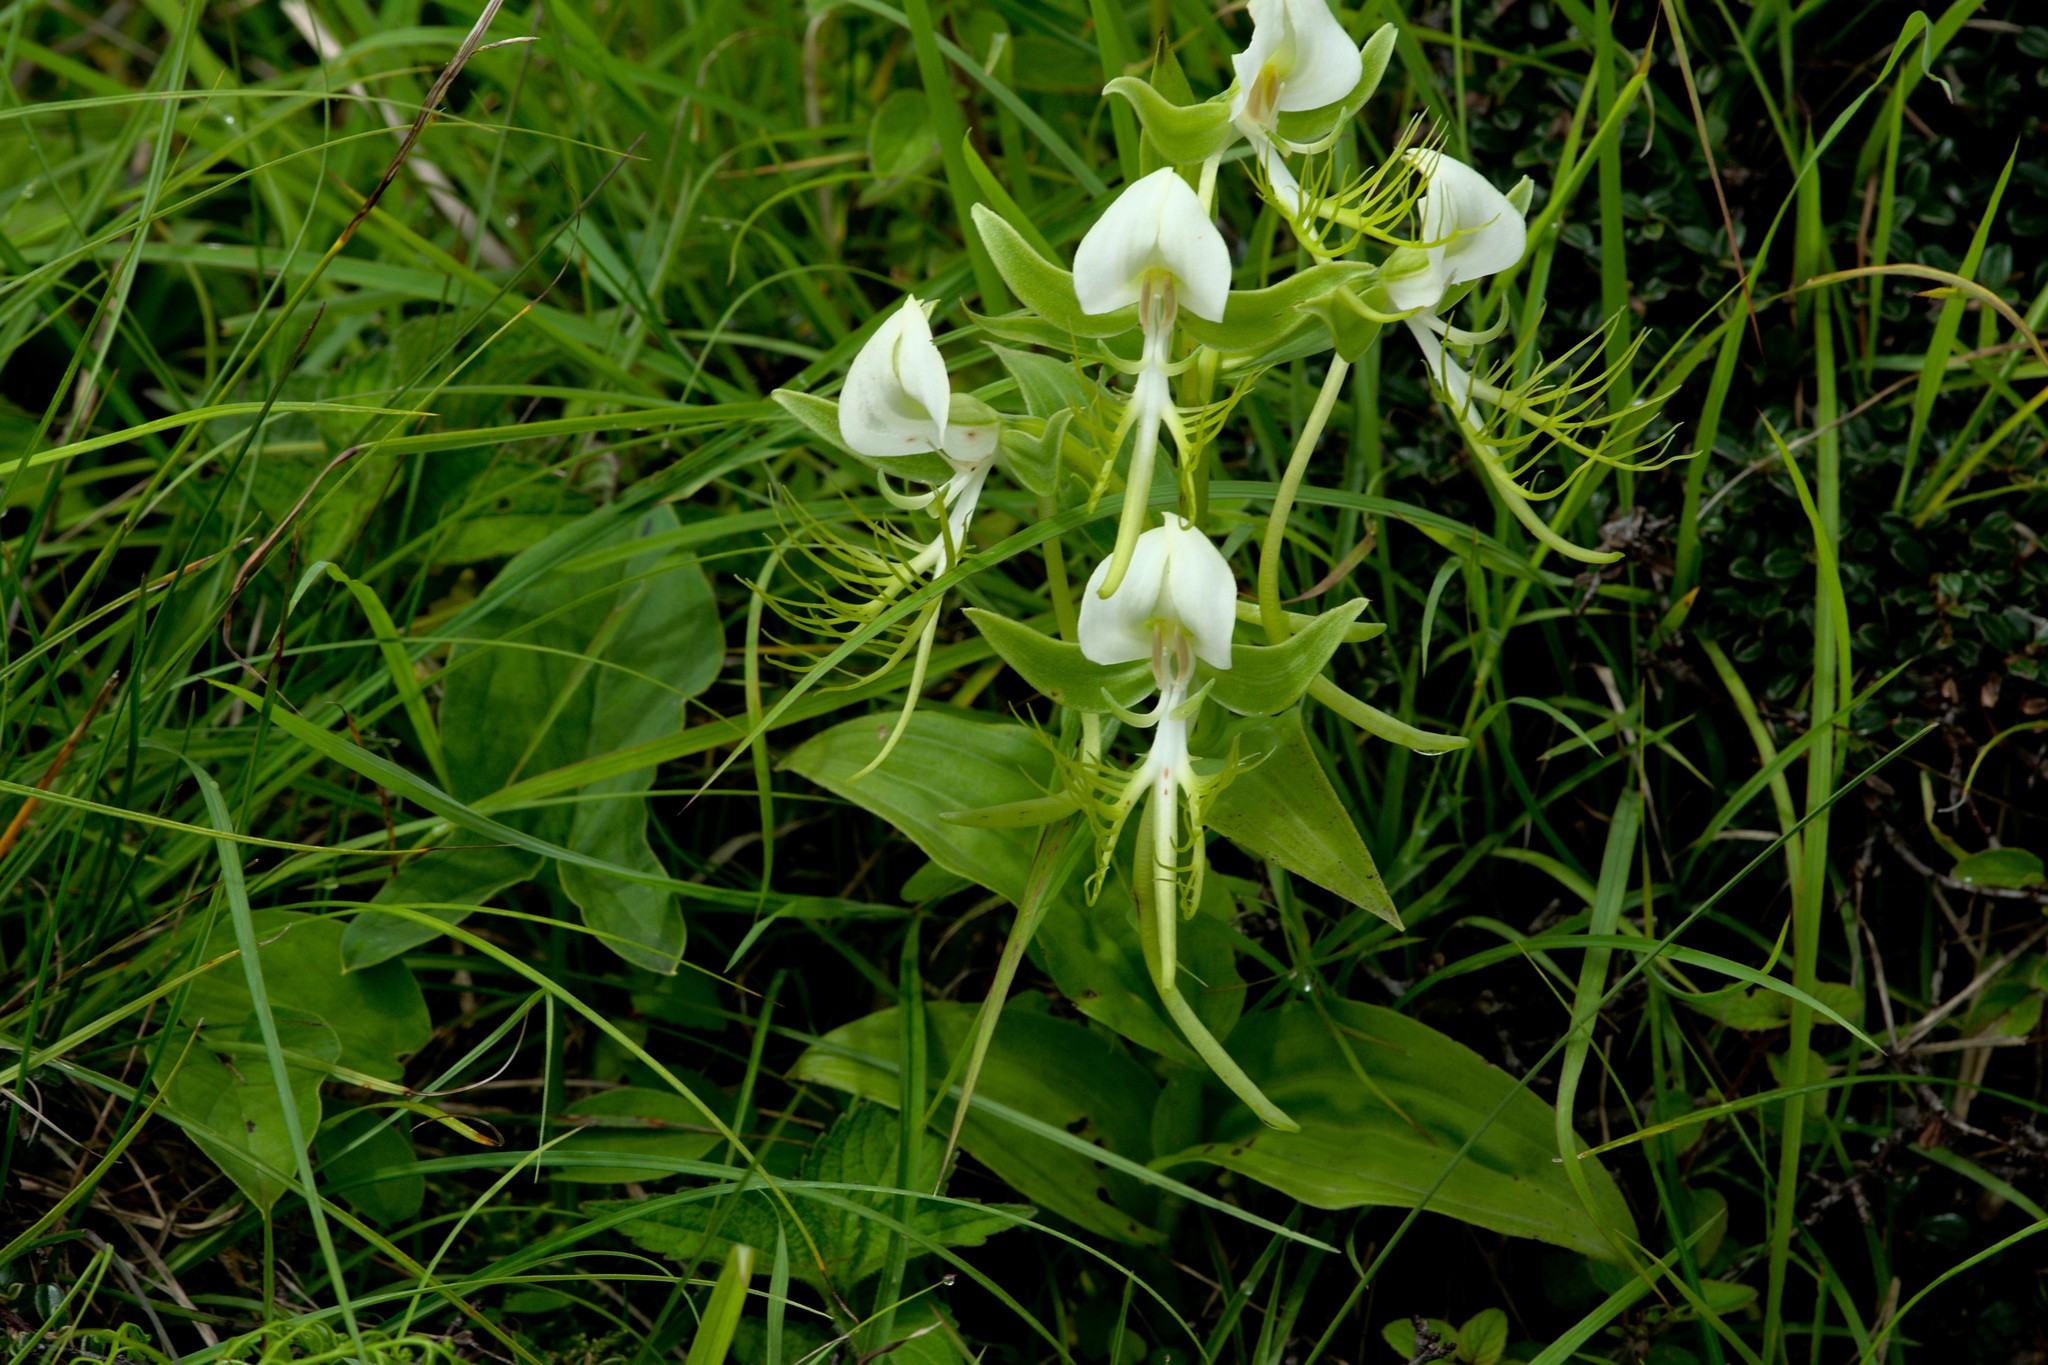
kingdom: Plantae
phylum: Tracheophyta
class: Liliopsida
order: Asparagales
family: Orchidaceae
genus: Habenaria
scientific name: Habenaria intermedia
